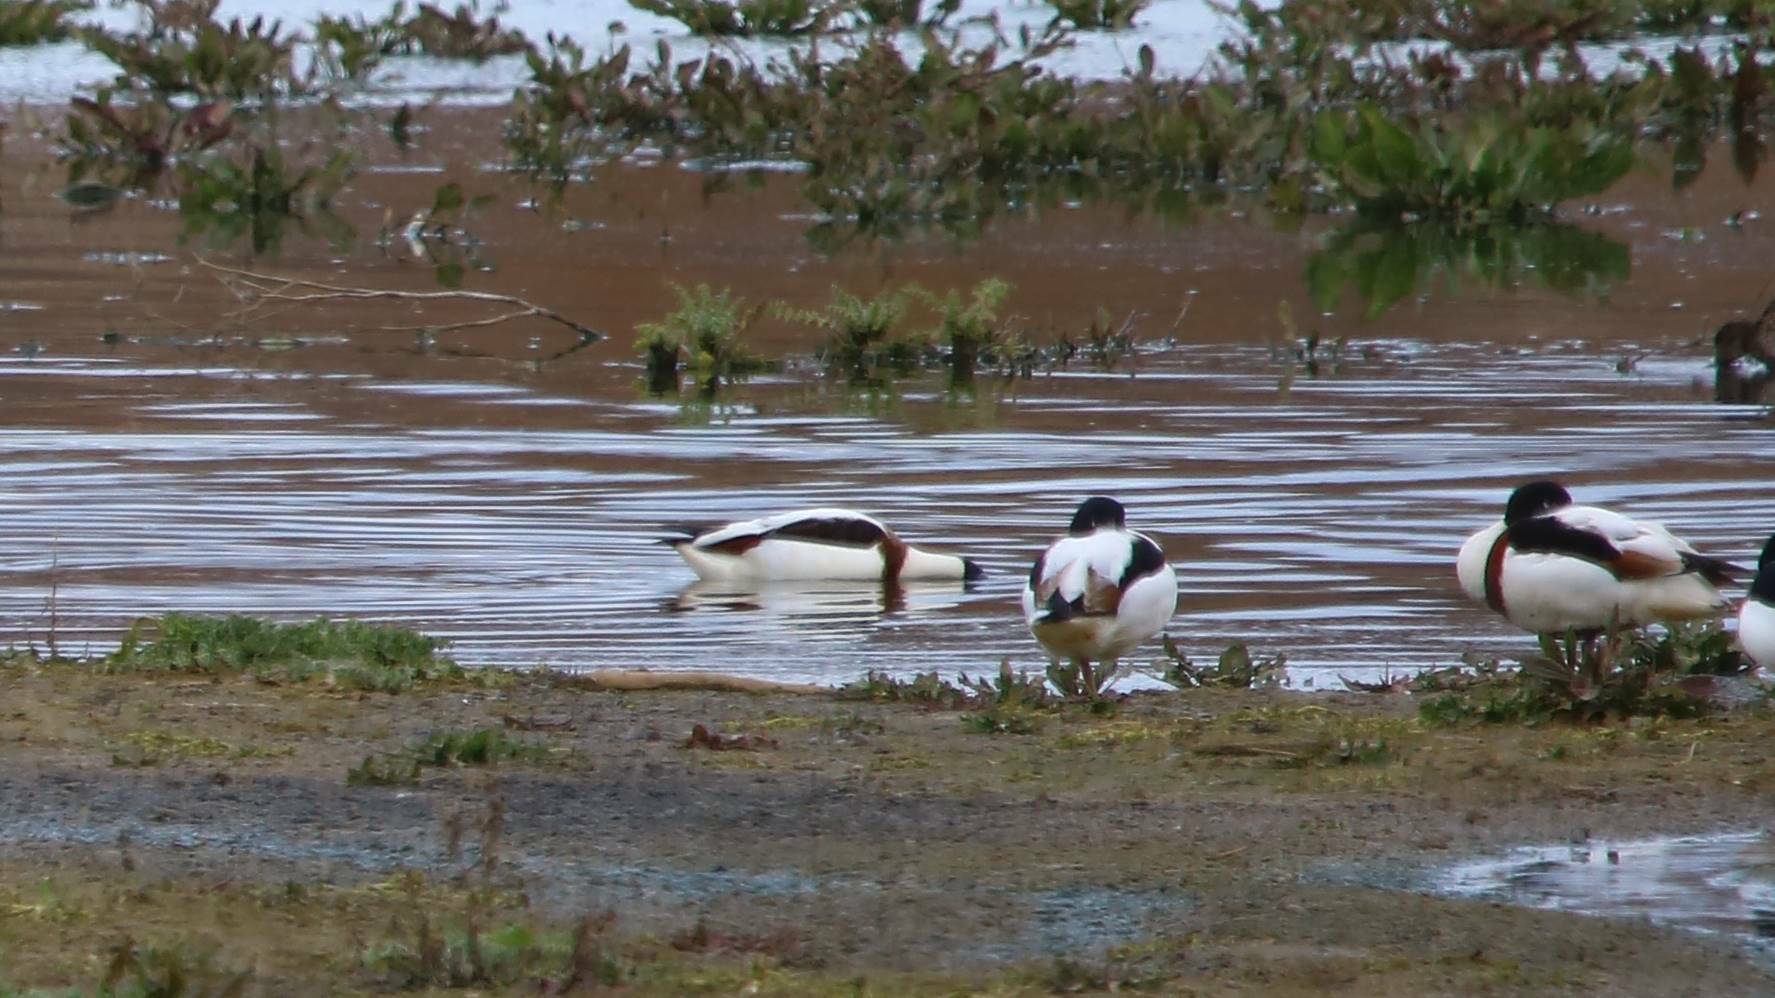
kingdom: Animalia
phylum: Chordata
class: Aves
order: Anseriformes
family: Anatidae
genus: Tadorna
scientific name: Tadorna tadorna
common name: Common shelduck
